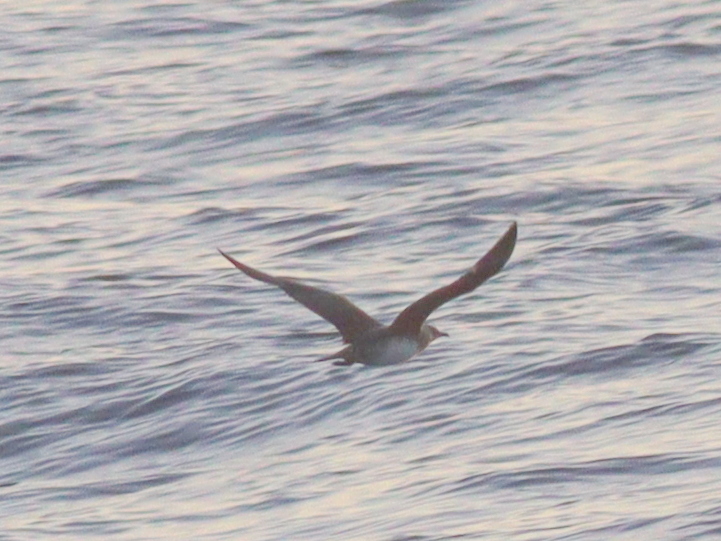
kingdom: Animalia
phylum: Chordata
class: Aves
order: Charadriiformes
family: Stercorariidae
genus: Stercorarius
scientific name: Stercorarius parasiticus
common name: Parasitic jaeger
